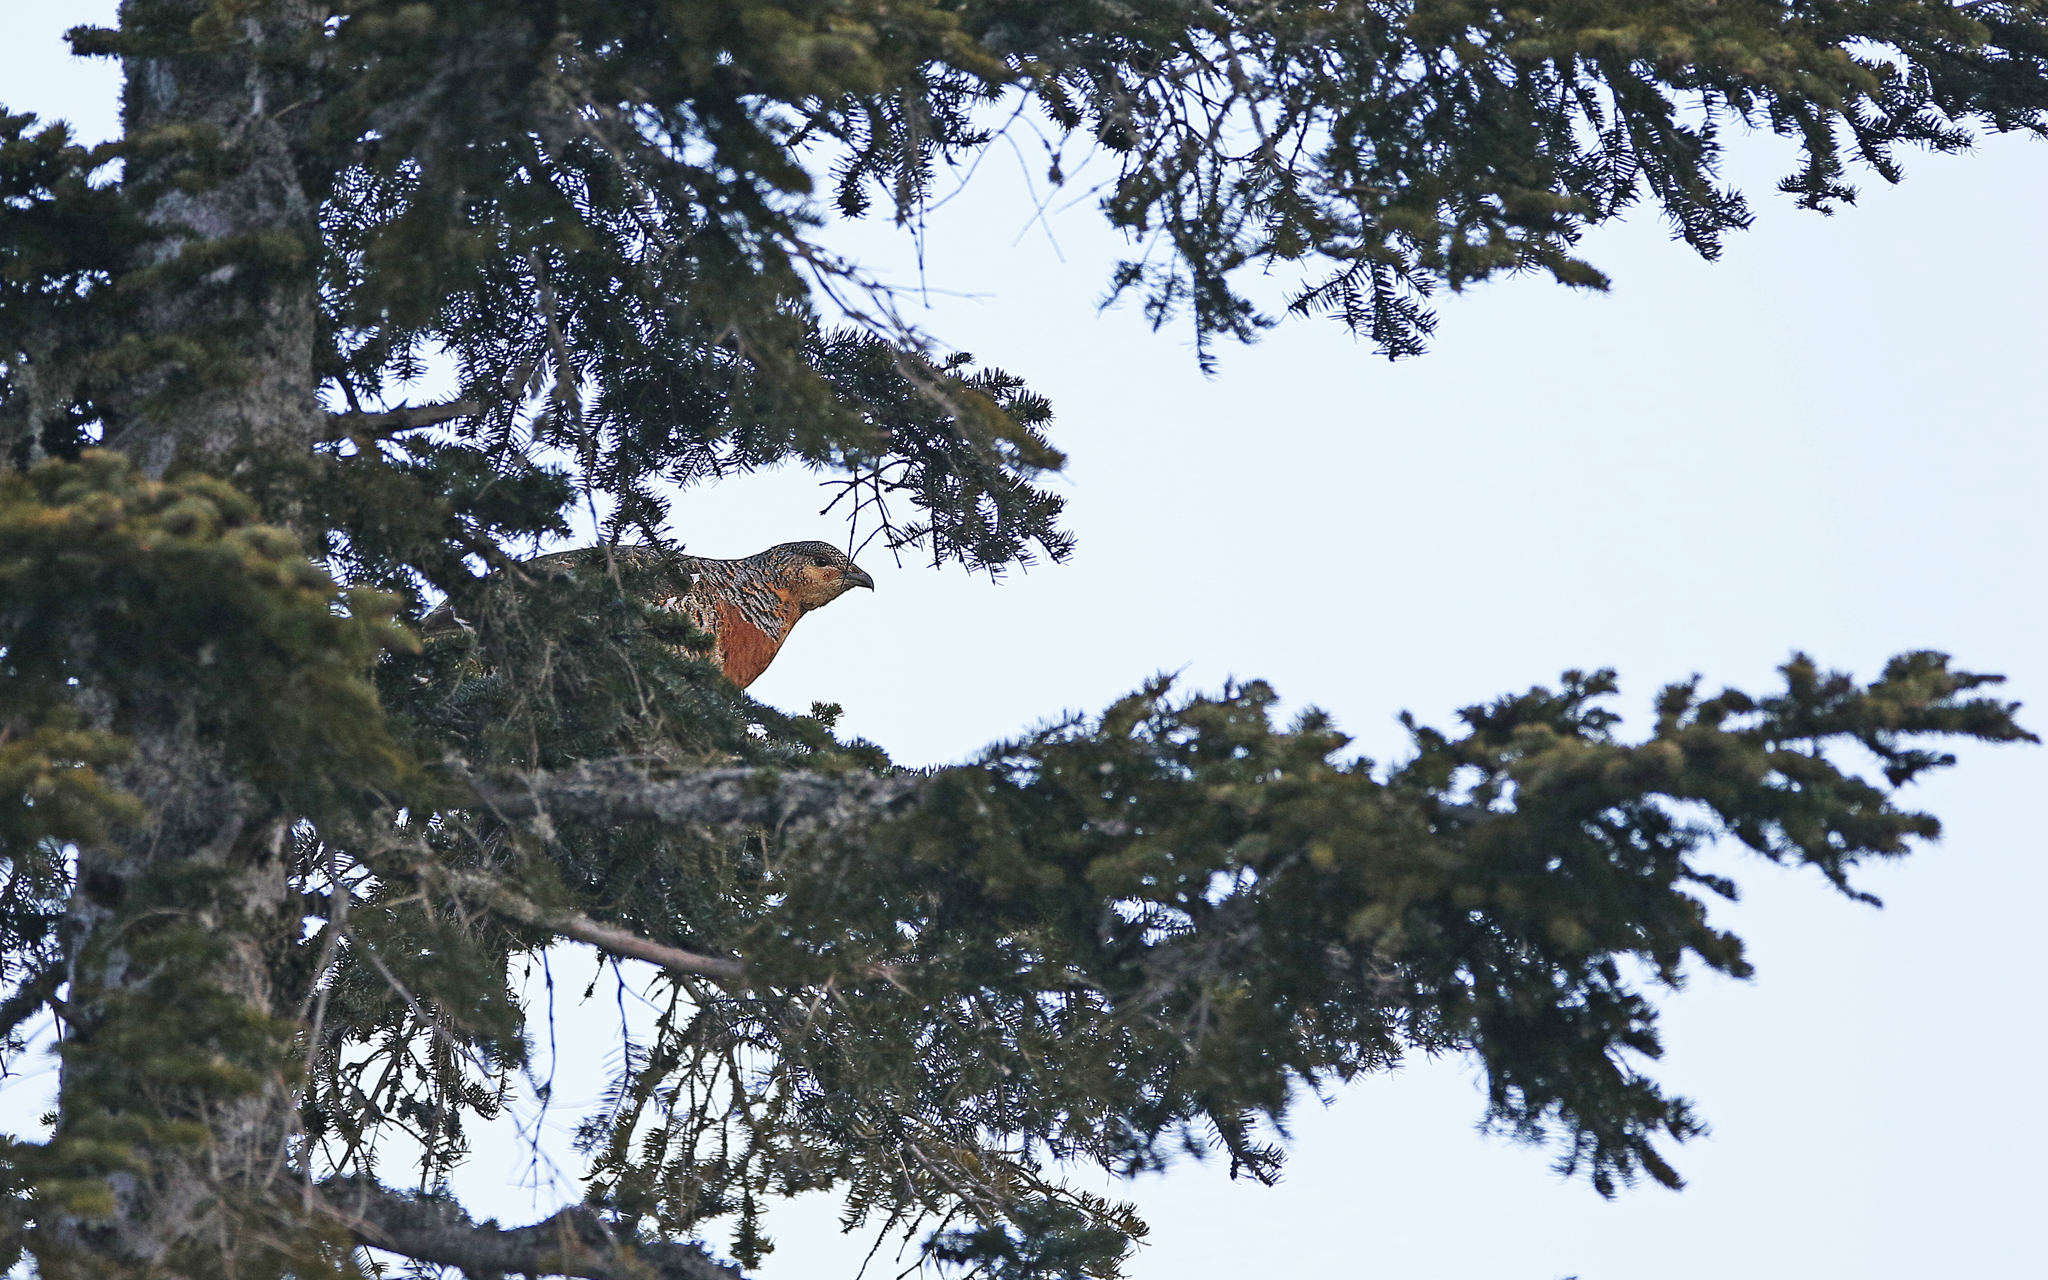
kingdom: Animalia
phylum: Chordata
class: Aves
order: Galliformes
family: Phasianidae
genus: Tetrao
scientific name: Tetrao urogallus
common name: Western capercaillie
